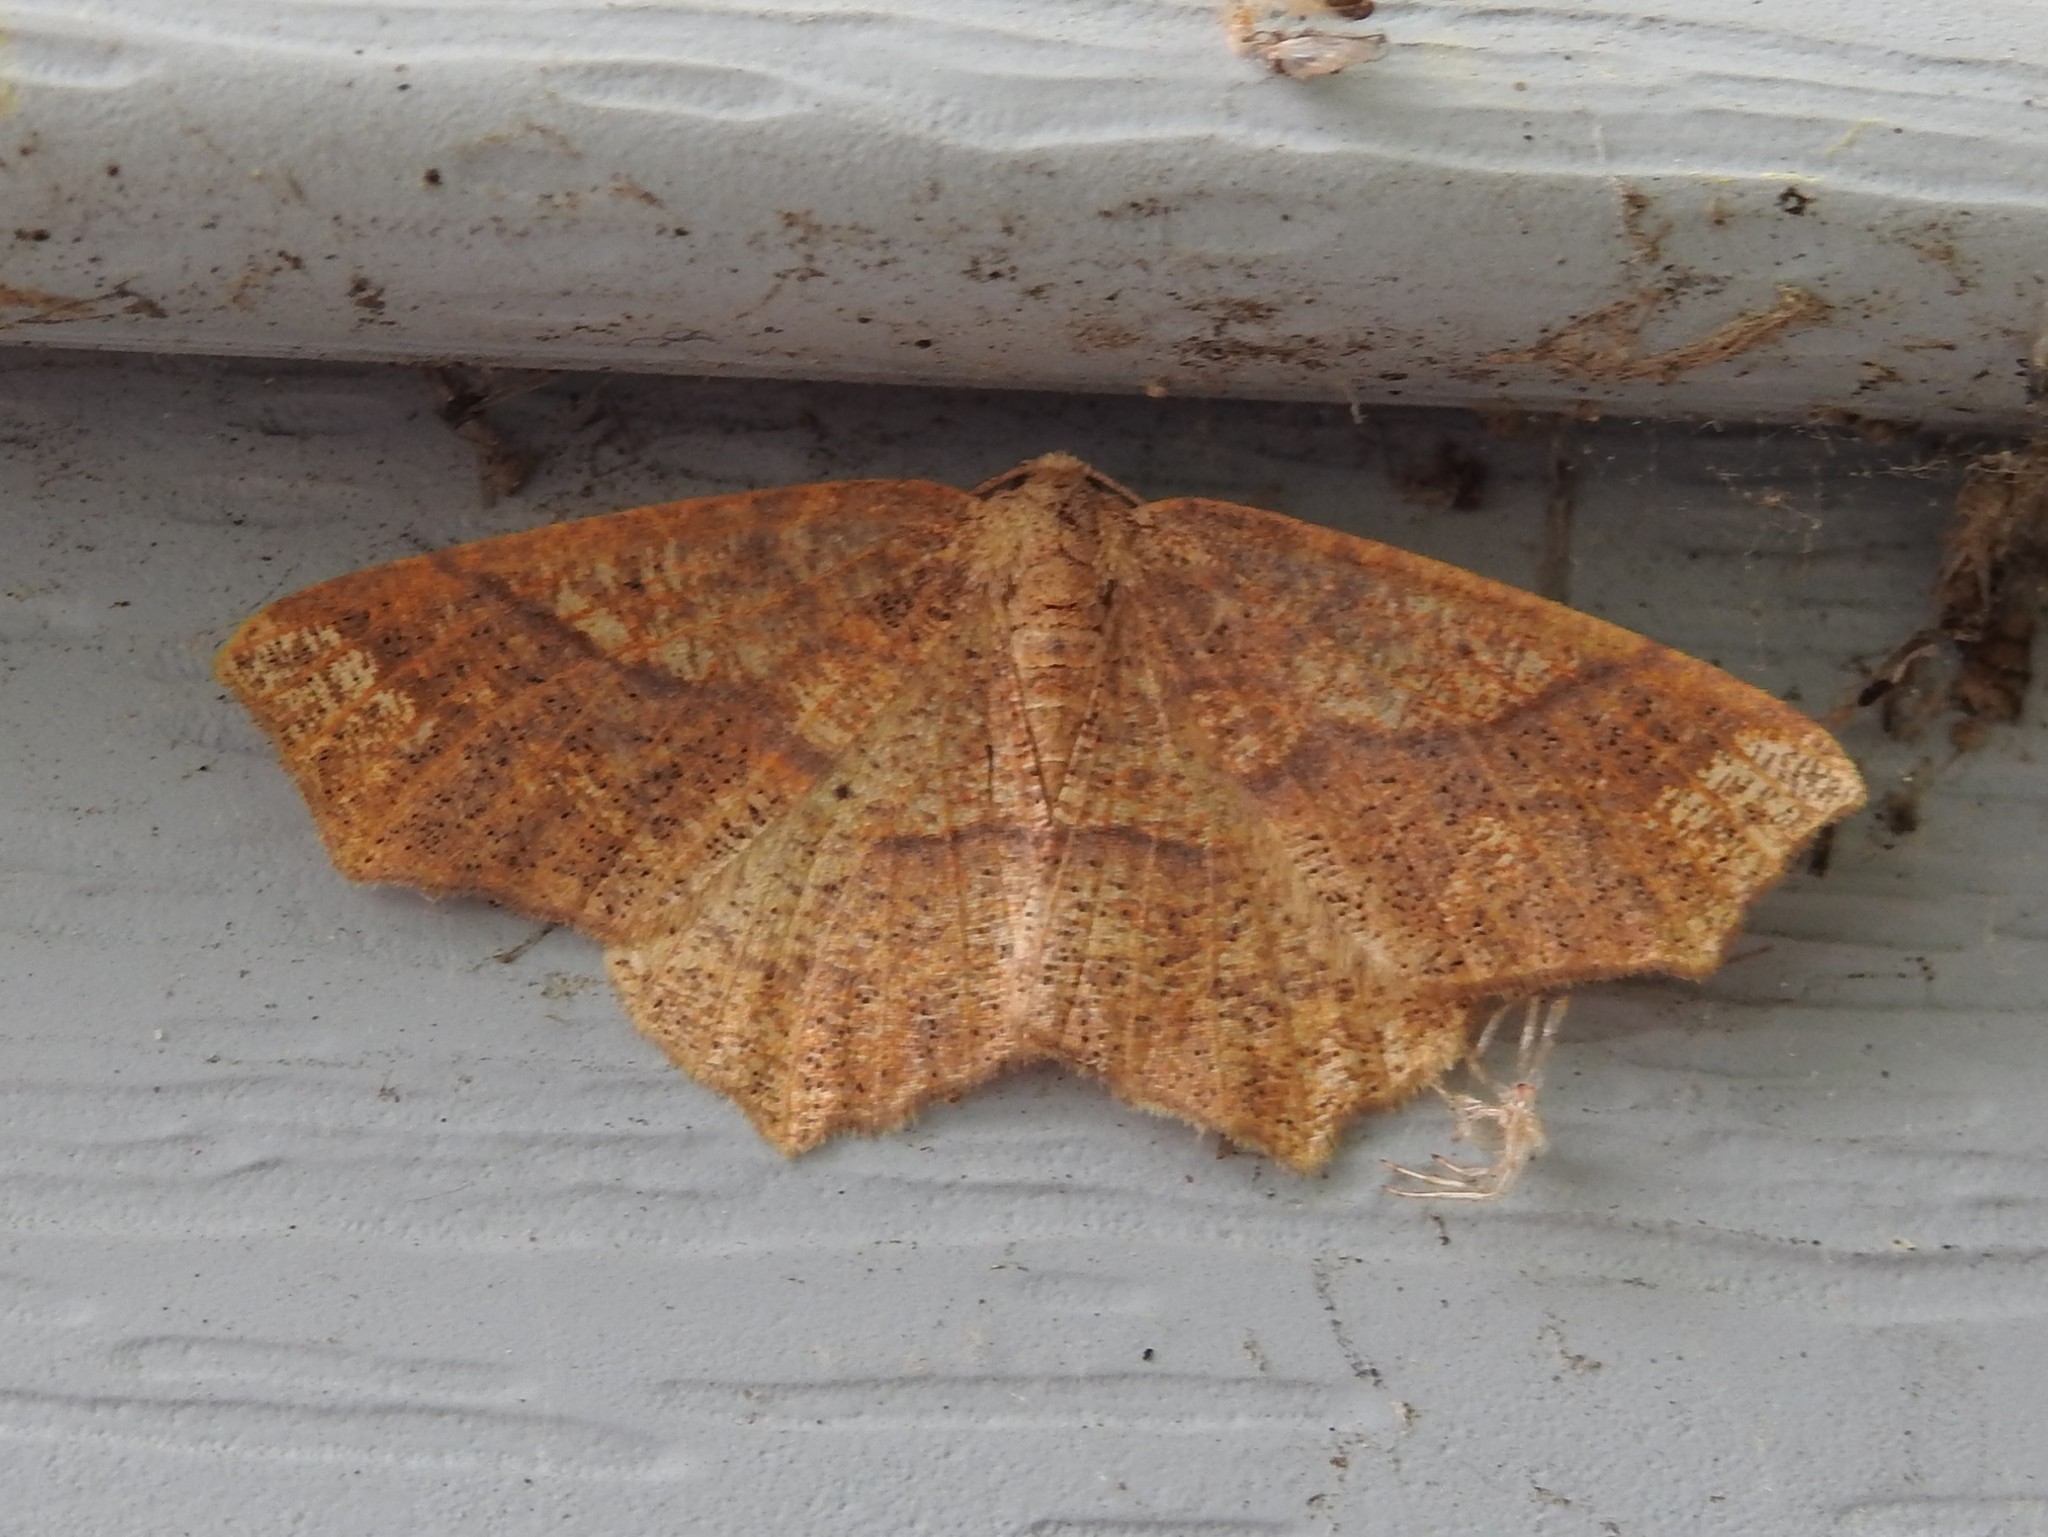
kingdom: Animalia
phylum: Arthropoda
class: Insecta
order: Lepidoptera
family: Geometridae
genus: Besma
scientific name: Besma quercivoraria
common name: Oak besma
